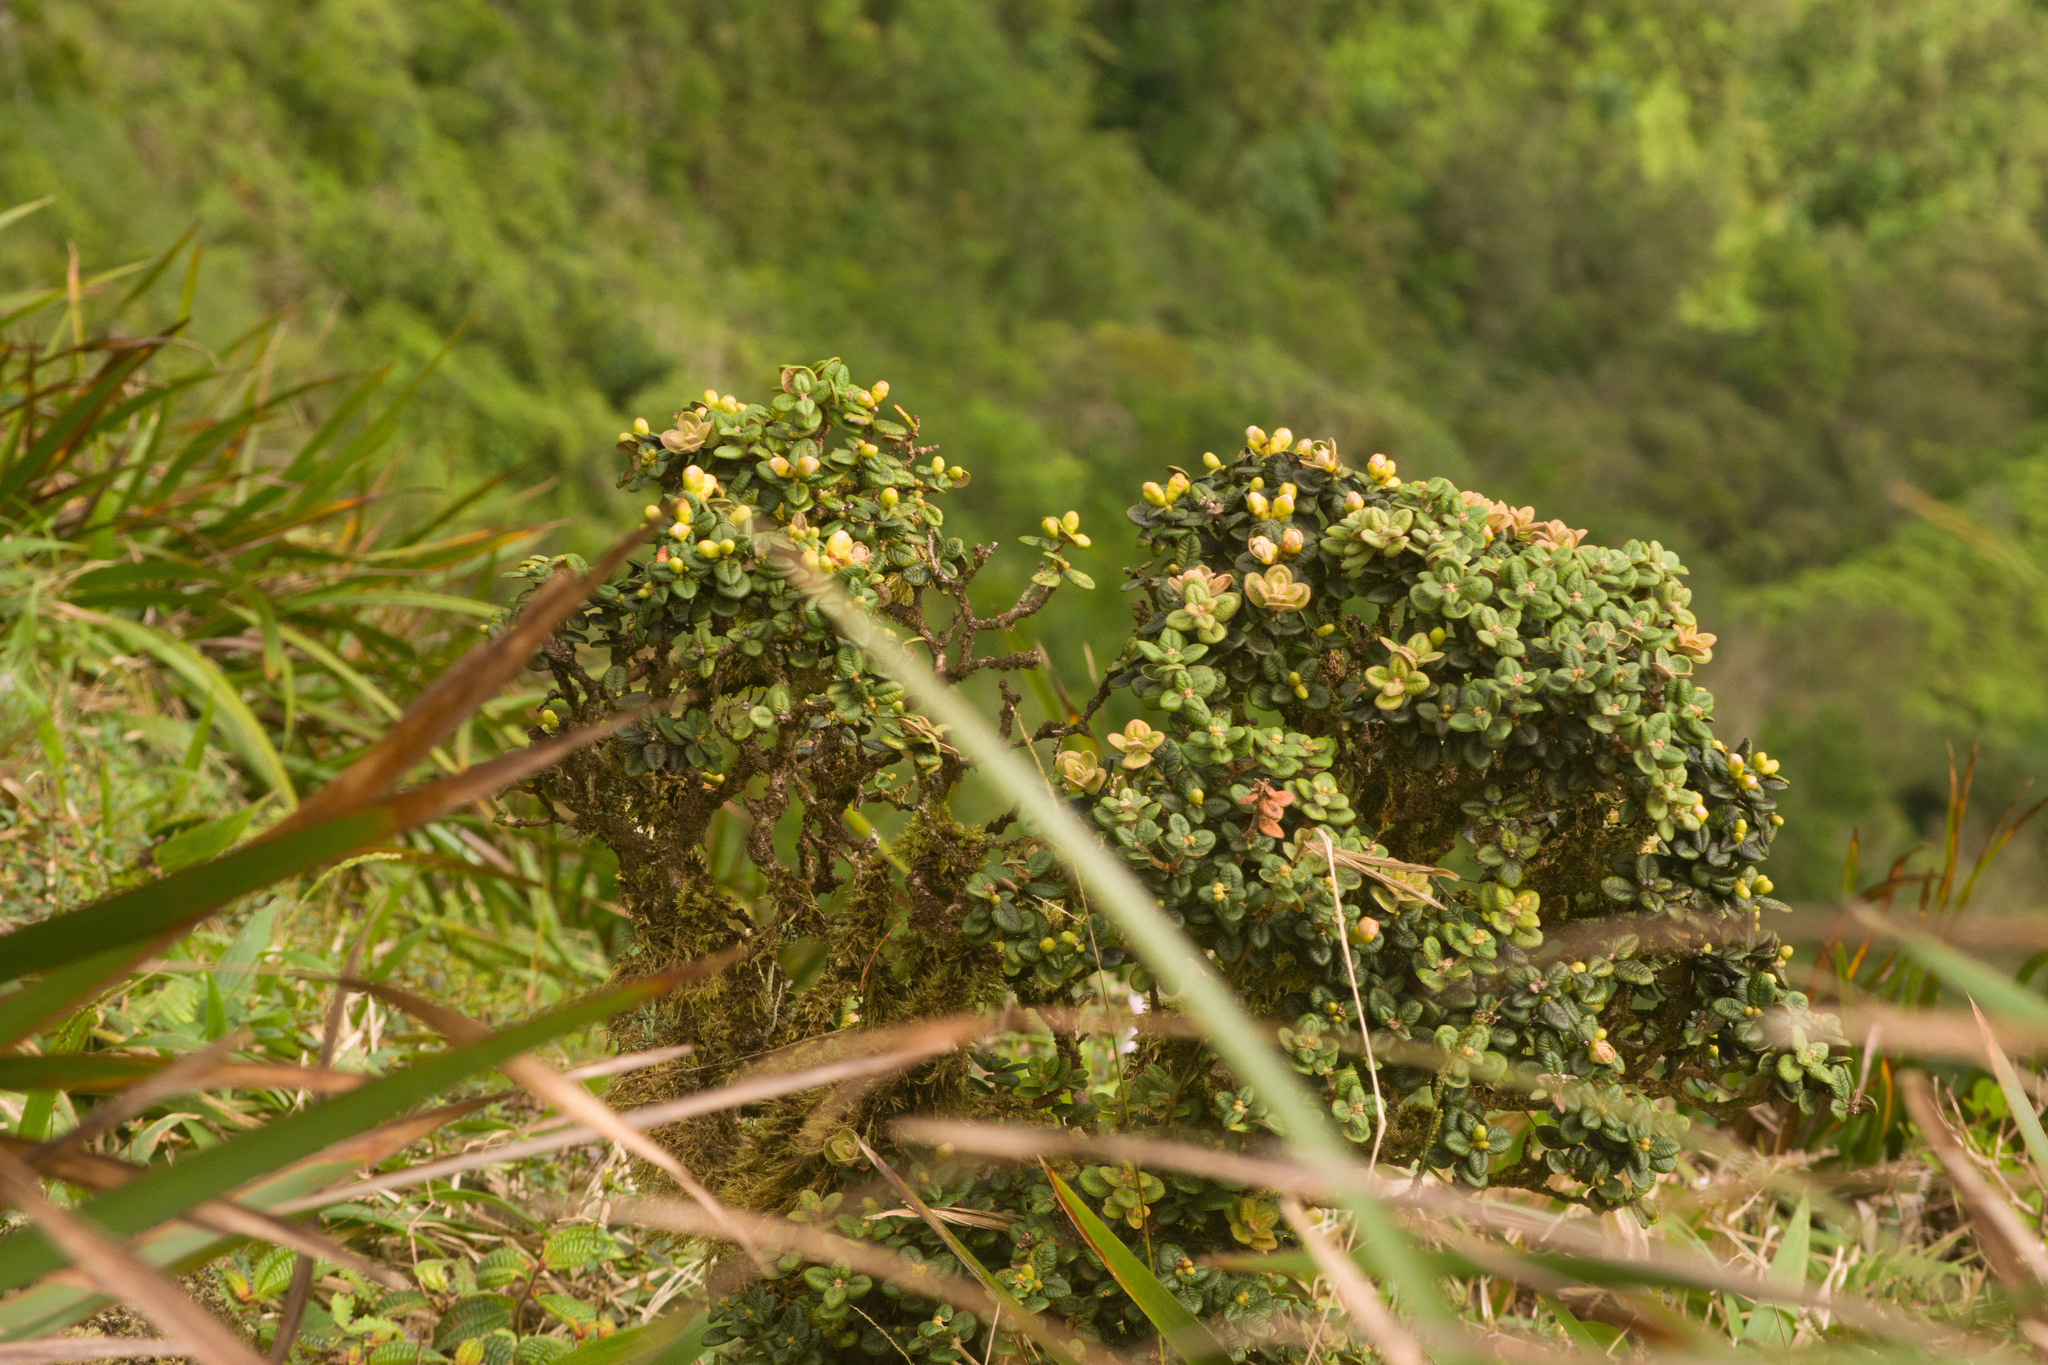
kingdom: Plantae
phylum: Tracheophyta
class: Magnoliopsida
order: Myrtales
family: Myrtaceae
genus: Metrosideros
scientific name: Metrosideros rugosa
